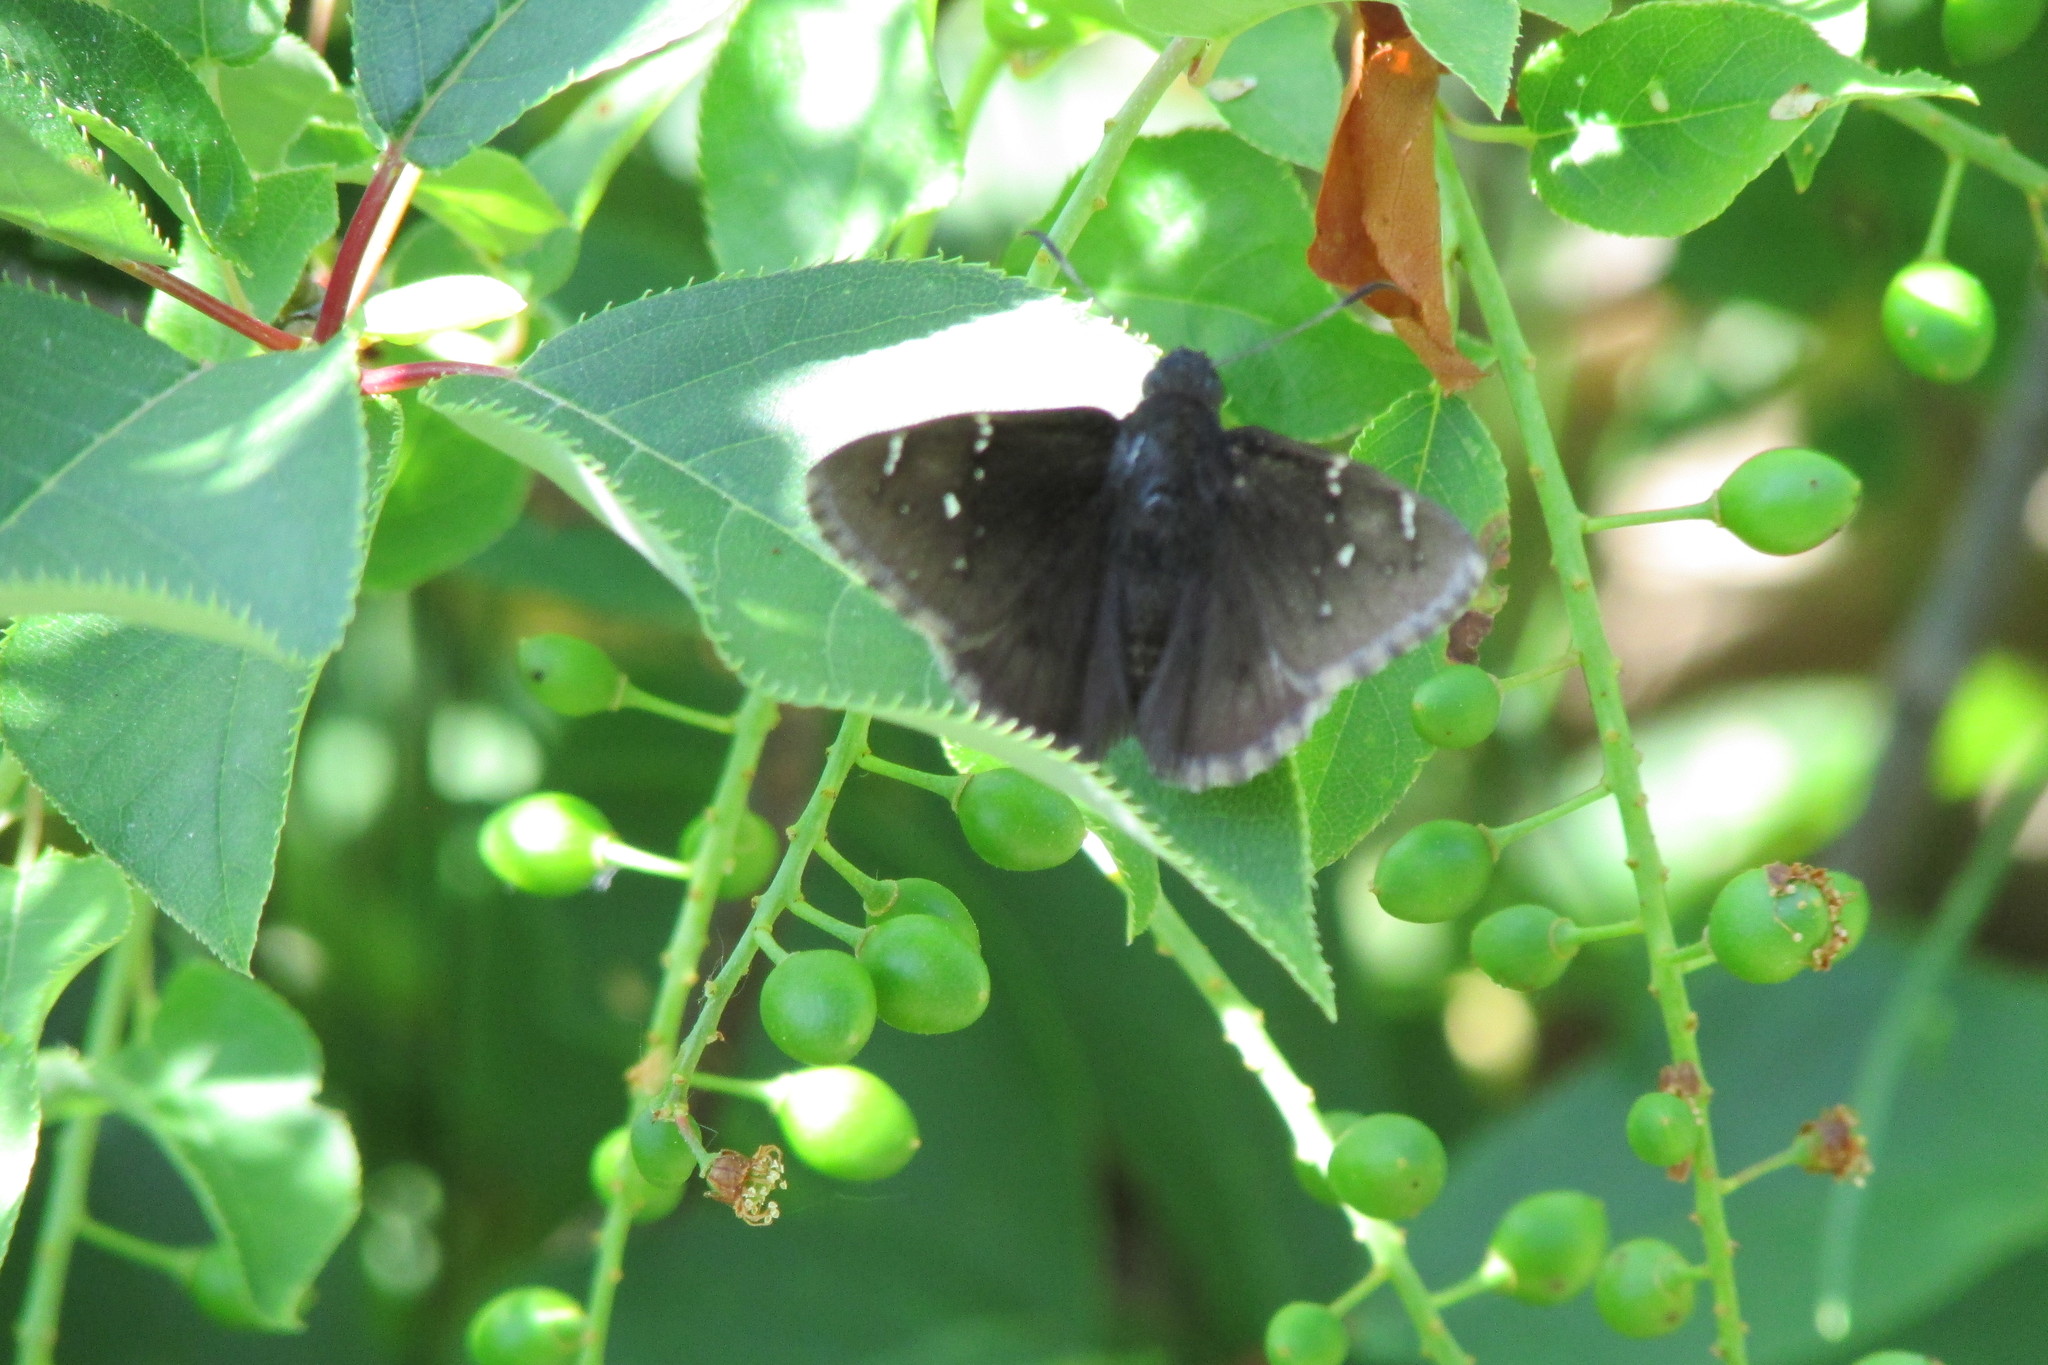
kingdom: Animalia
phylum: Arthropoda
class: Insecta
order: Lepidoptera
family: Hesperiidae
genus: Thorybes
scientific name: Thorybes pylades
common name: Northern cloudywing
